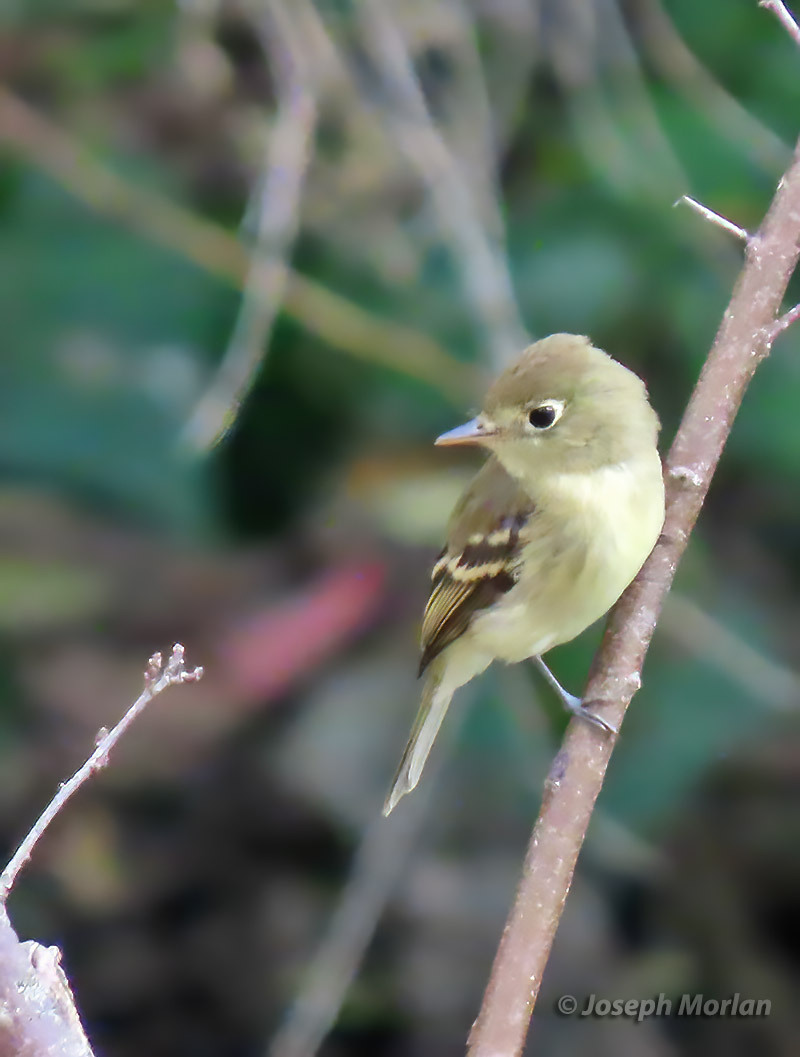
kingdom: Animalia
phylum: Chordata
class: Aves
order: Passeriformes
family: Tyrannidae
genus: Empidonax
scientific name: Empidonax difficilis
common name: Pacific-slope flycatcher
